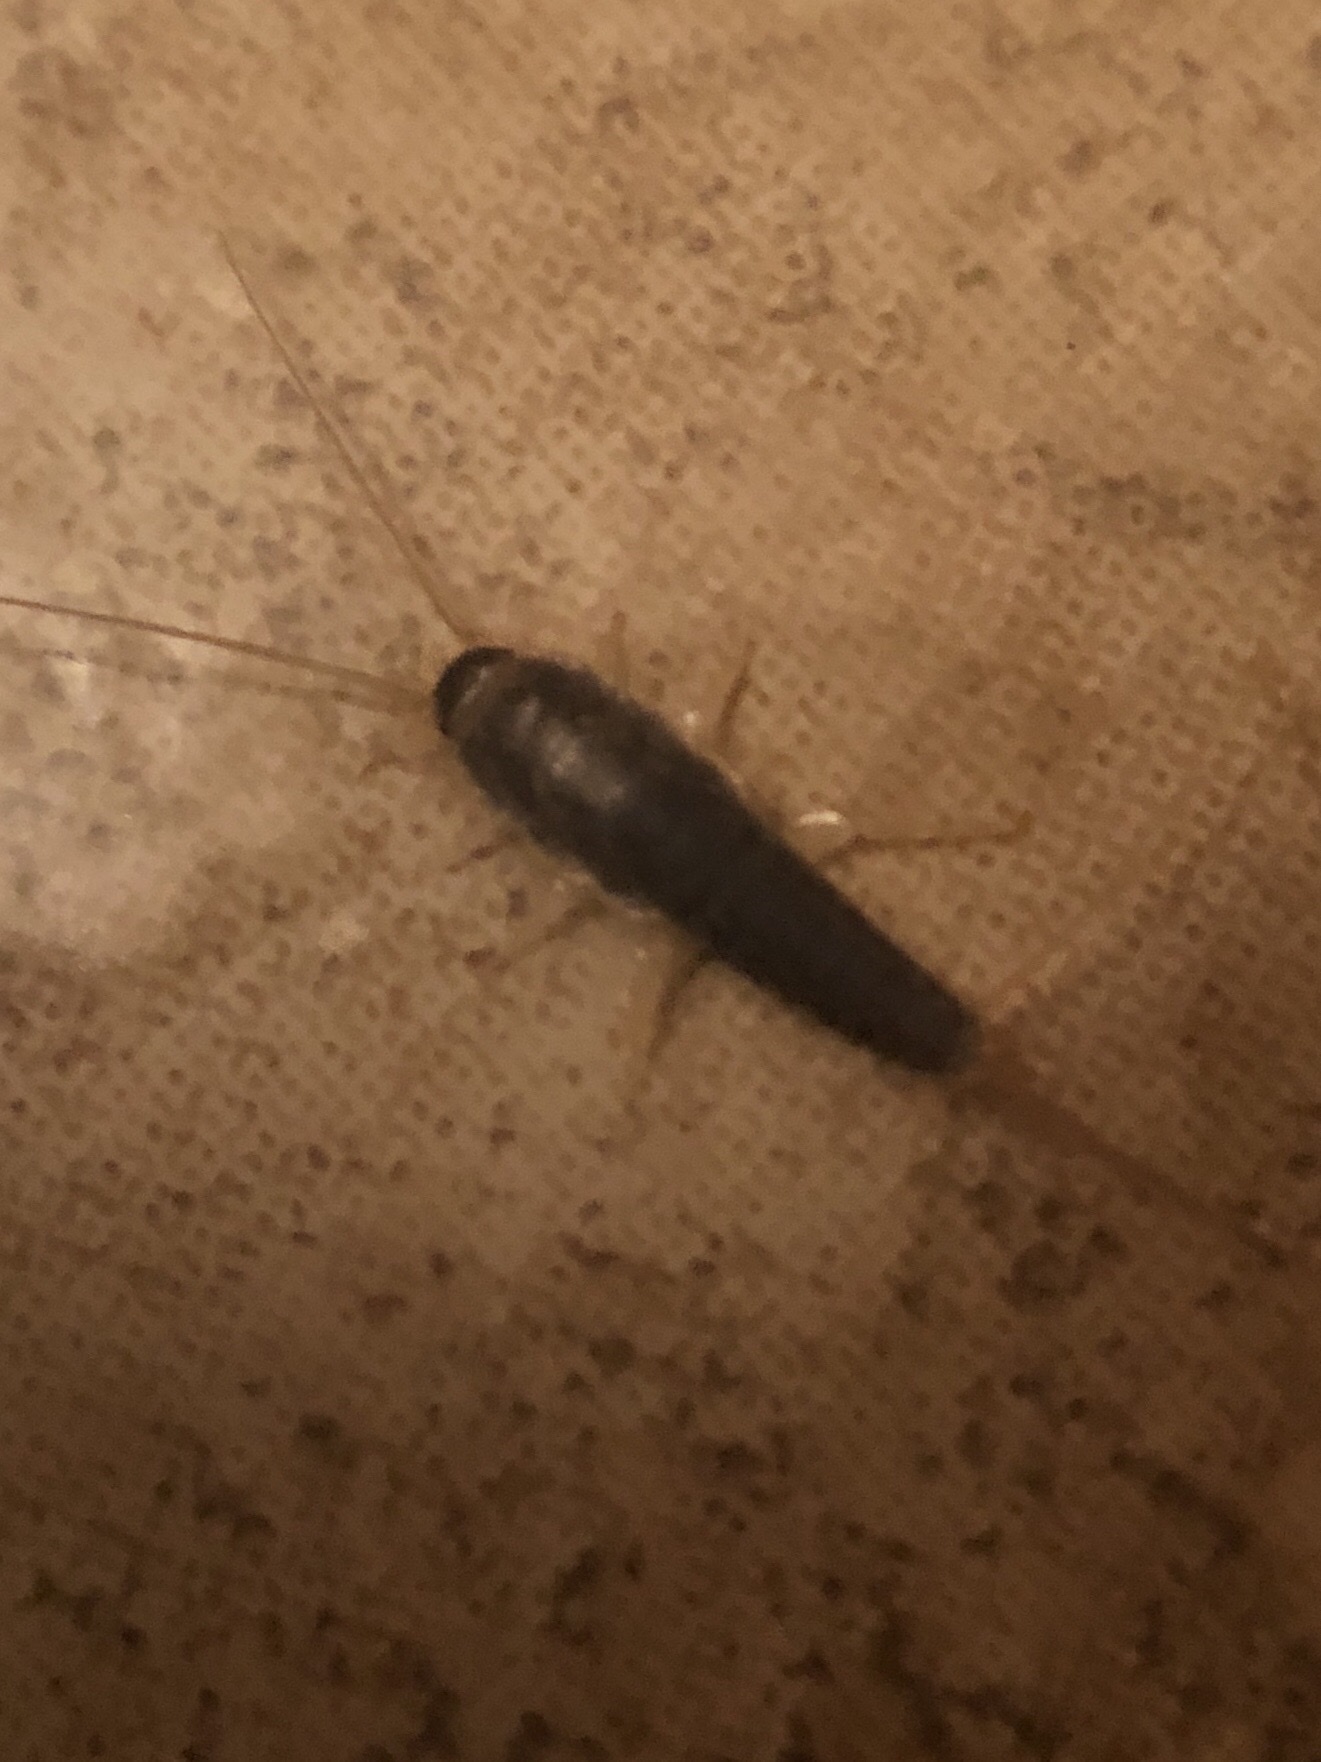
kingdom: Animalia
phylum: Arthropoda
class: Insecta
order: Zygentoma
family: Lepismatidae
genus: Ctenolepisma
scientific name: Ctenolepisma longicaudatum
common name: Silverfish
